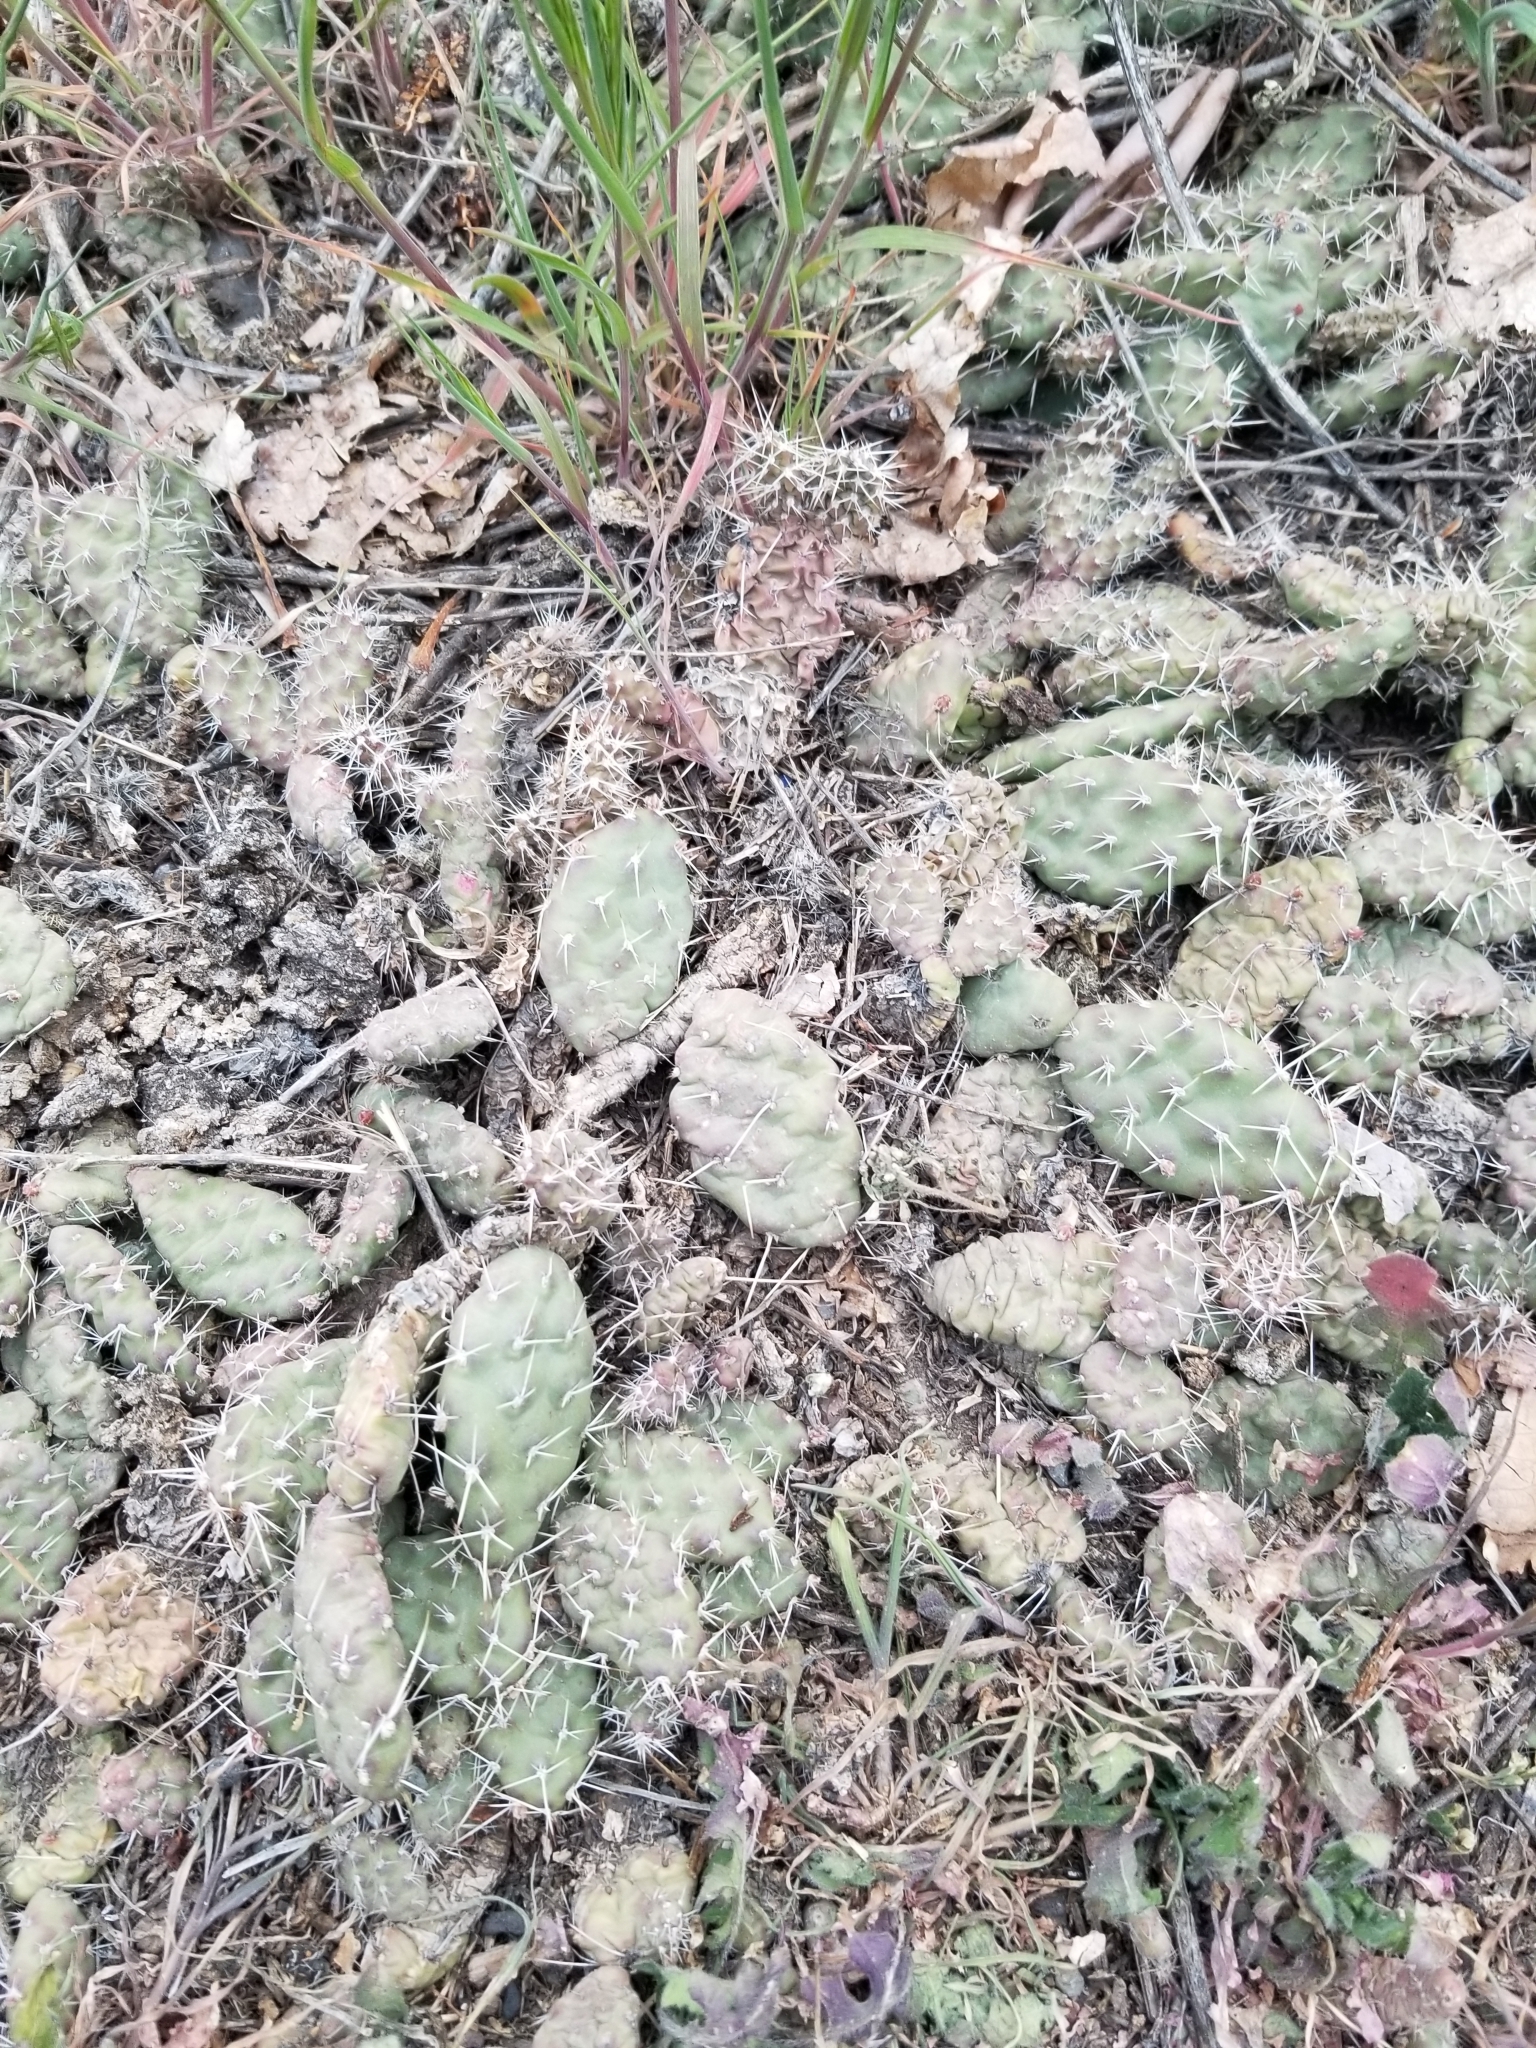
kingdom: Plantae
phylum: Tracheophyta
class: Magnoliopsida
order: Caryophyllales
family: Cactaceae
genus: Opuntia
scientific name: Opuntia fragilis
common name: Brittle cactus
